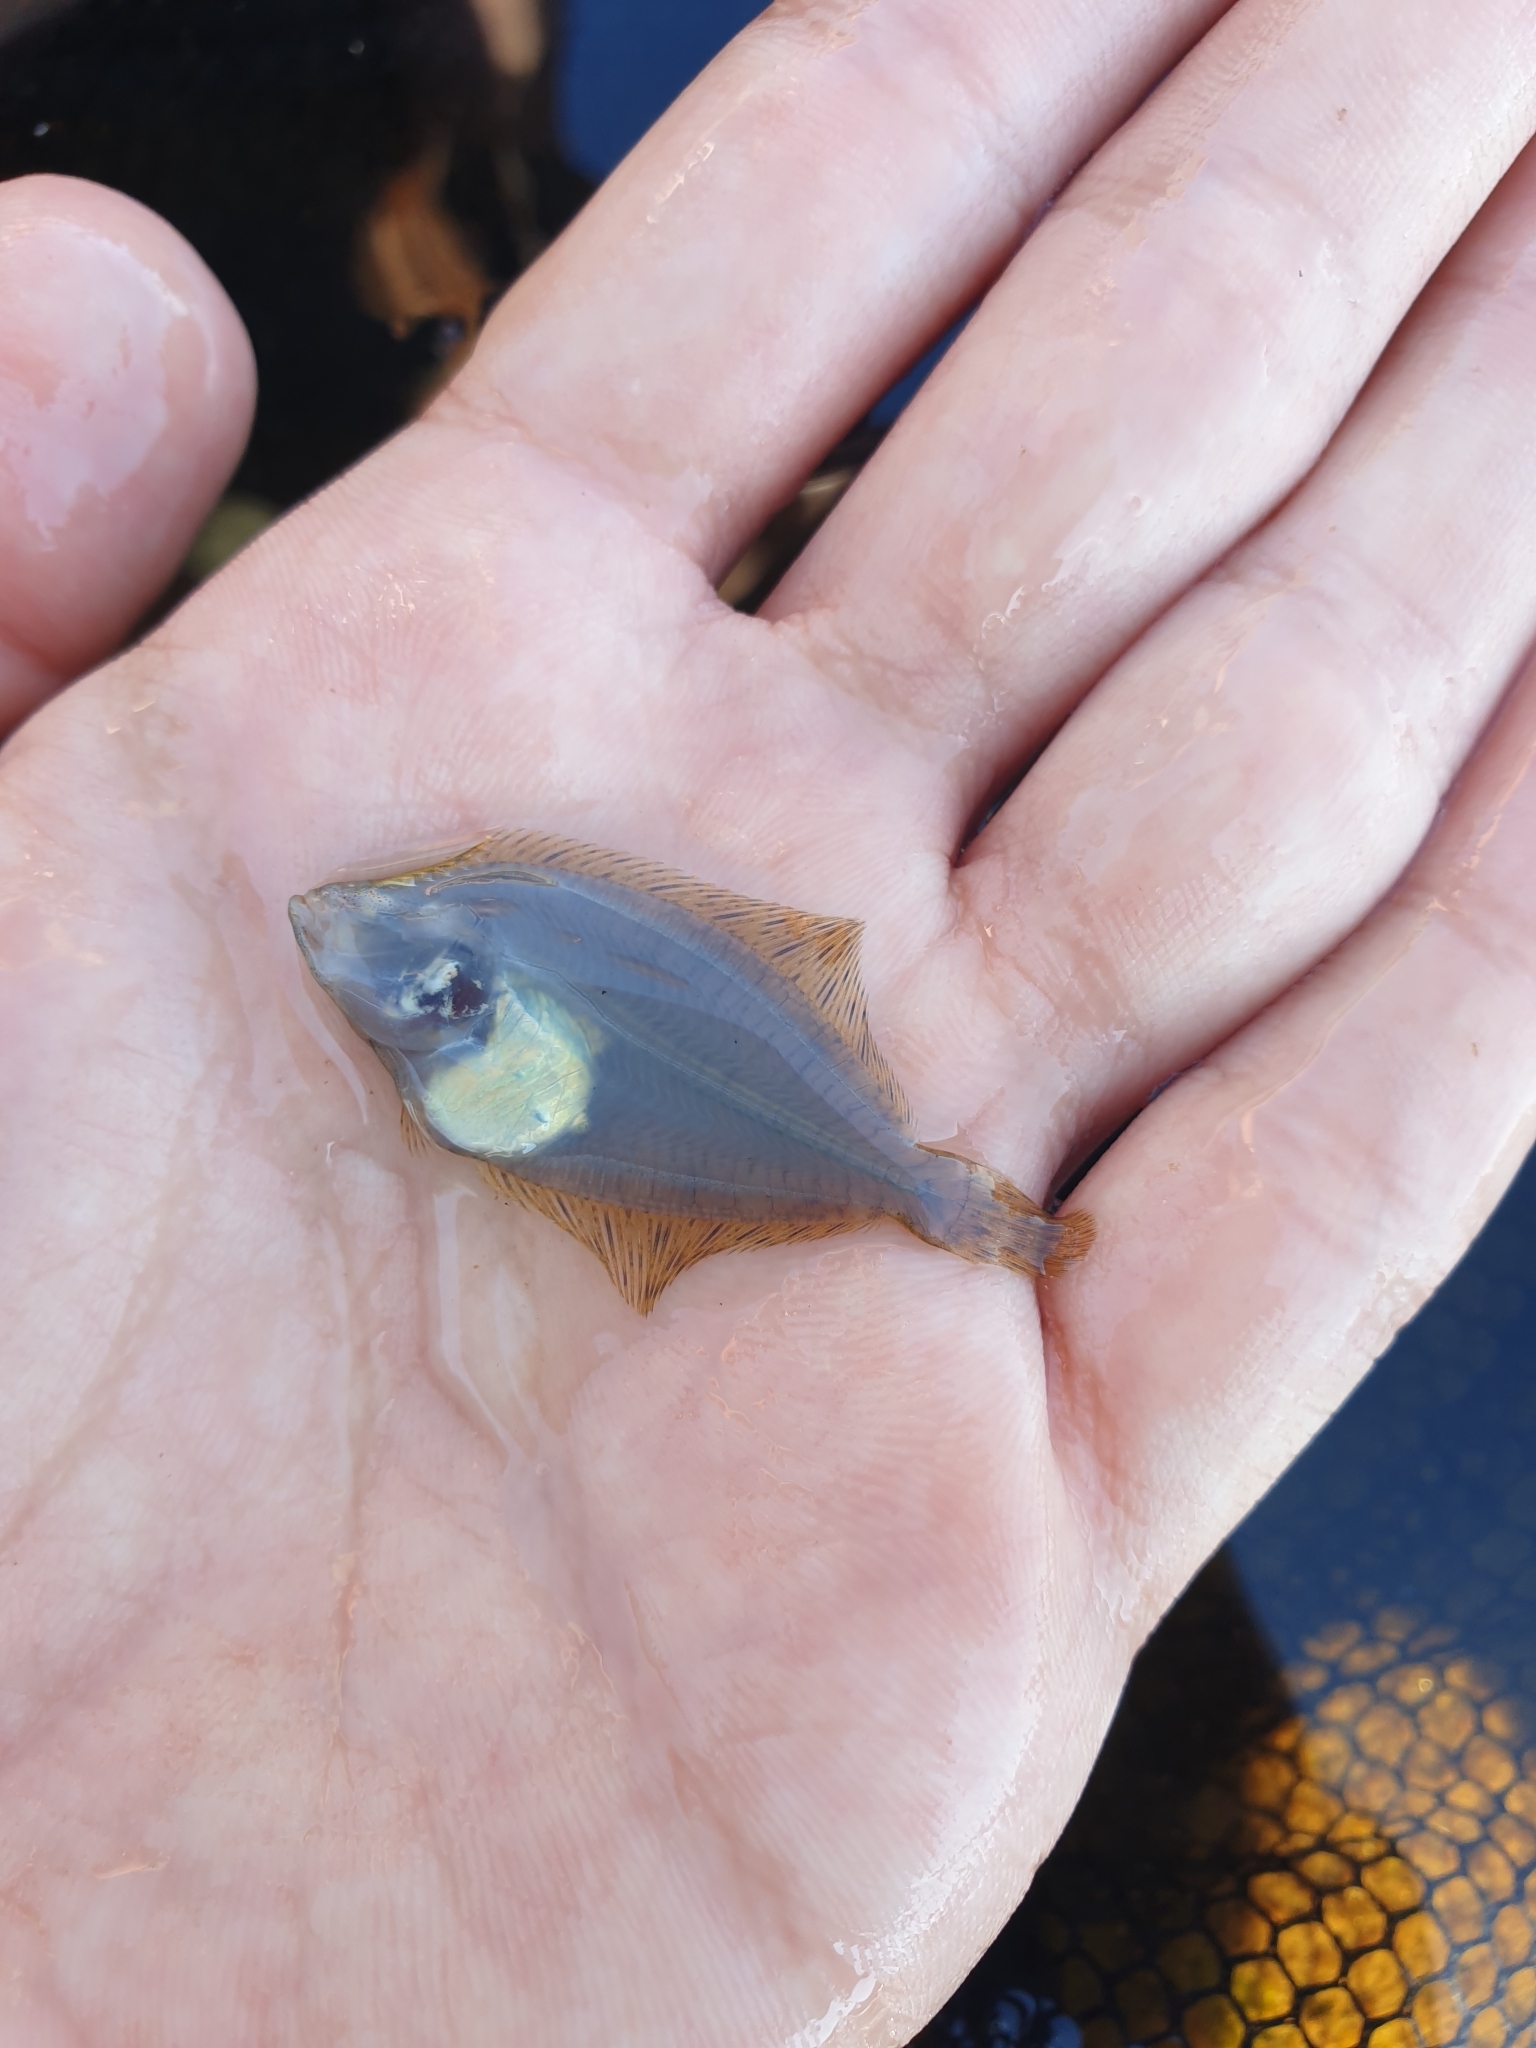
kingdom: Animalia
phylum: Chordata
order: Pleuronectiformes
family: Pleuronectidae
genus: Platichthys
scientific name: Platichthys flesus
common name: European flounder
